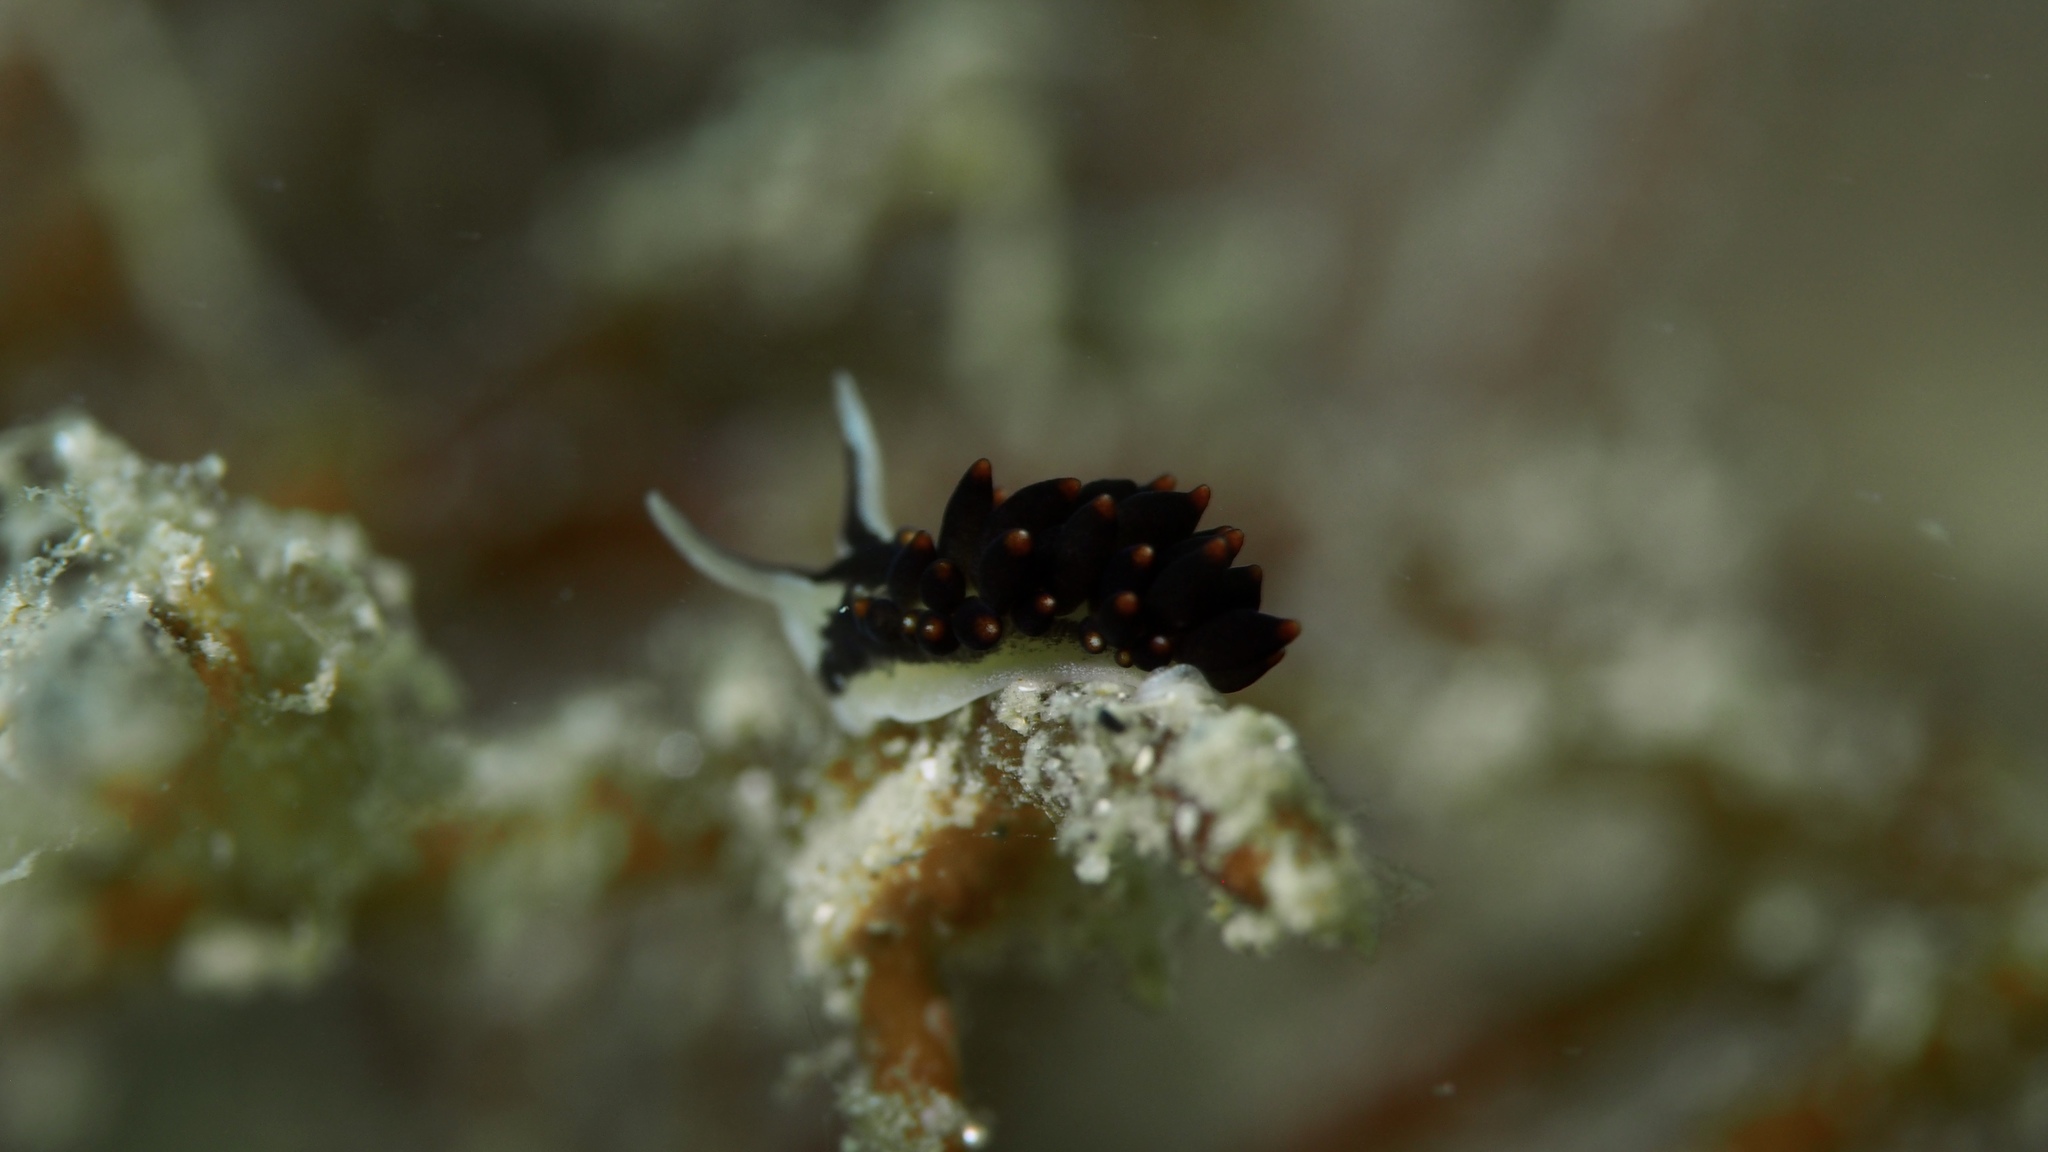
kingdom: Animalia
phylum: Mollusca
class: Gastropoda
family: Limapontiidae
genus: Ercolania
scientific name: Ercolania boodleae
